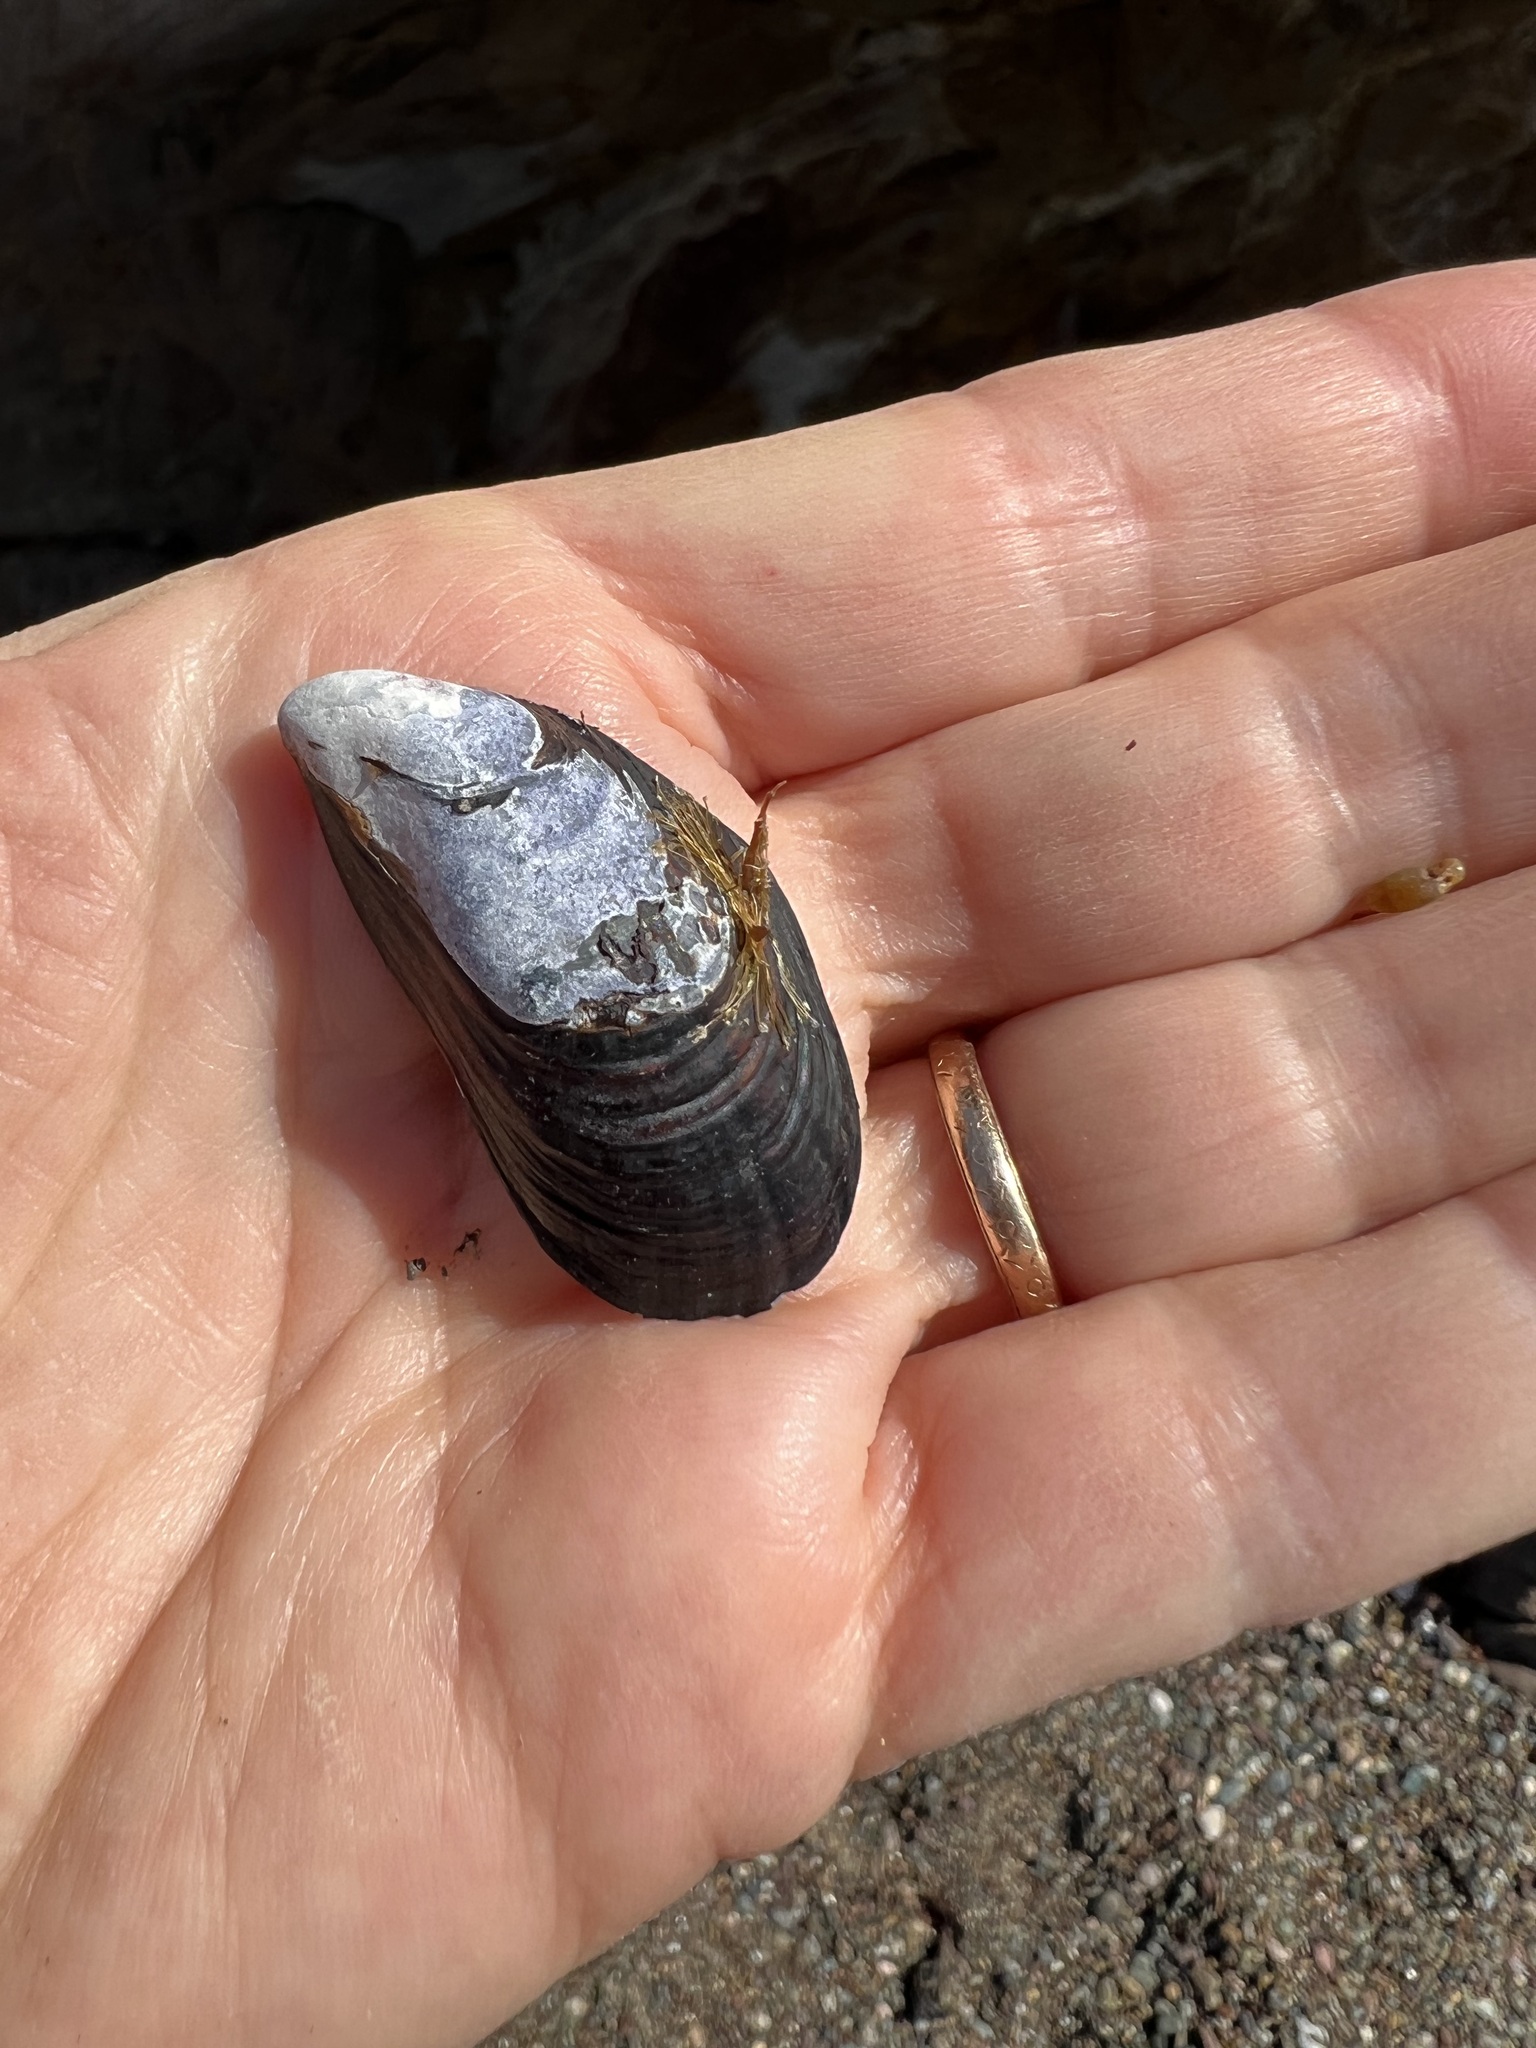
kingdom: Animalia
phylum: Mollusca
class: Bivalvia
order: Mytilida
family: Mytilidae
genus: Mytilus
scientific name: Mytilus californianus
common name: California mussel
